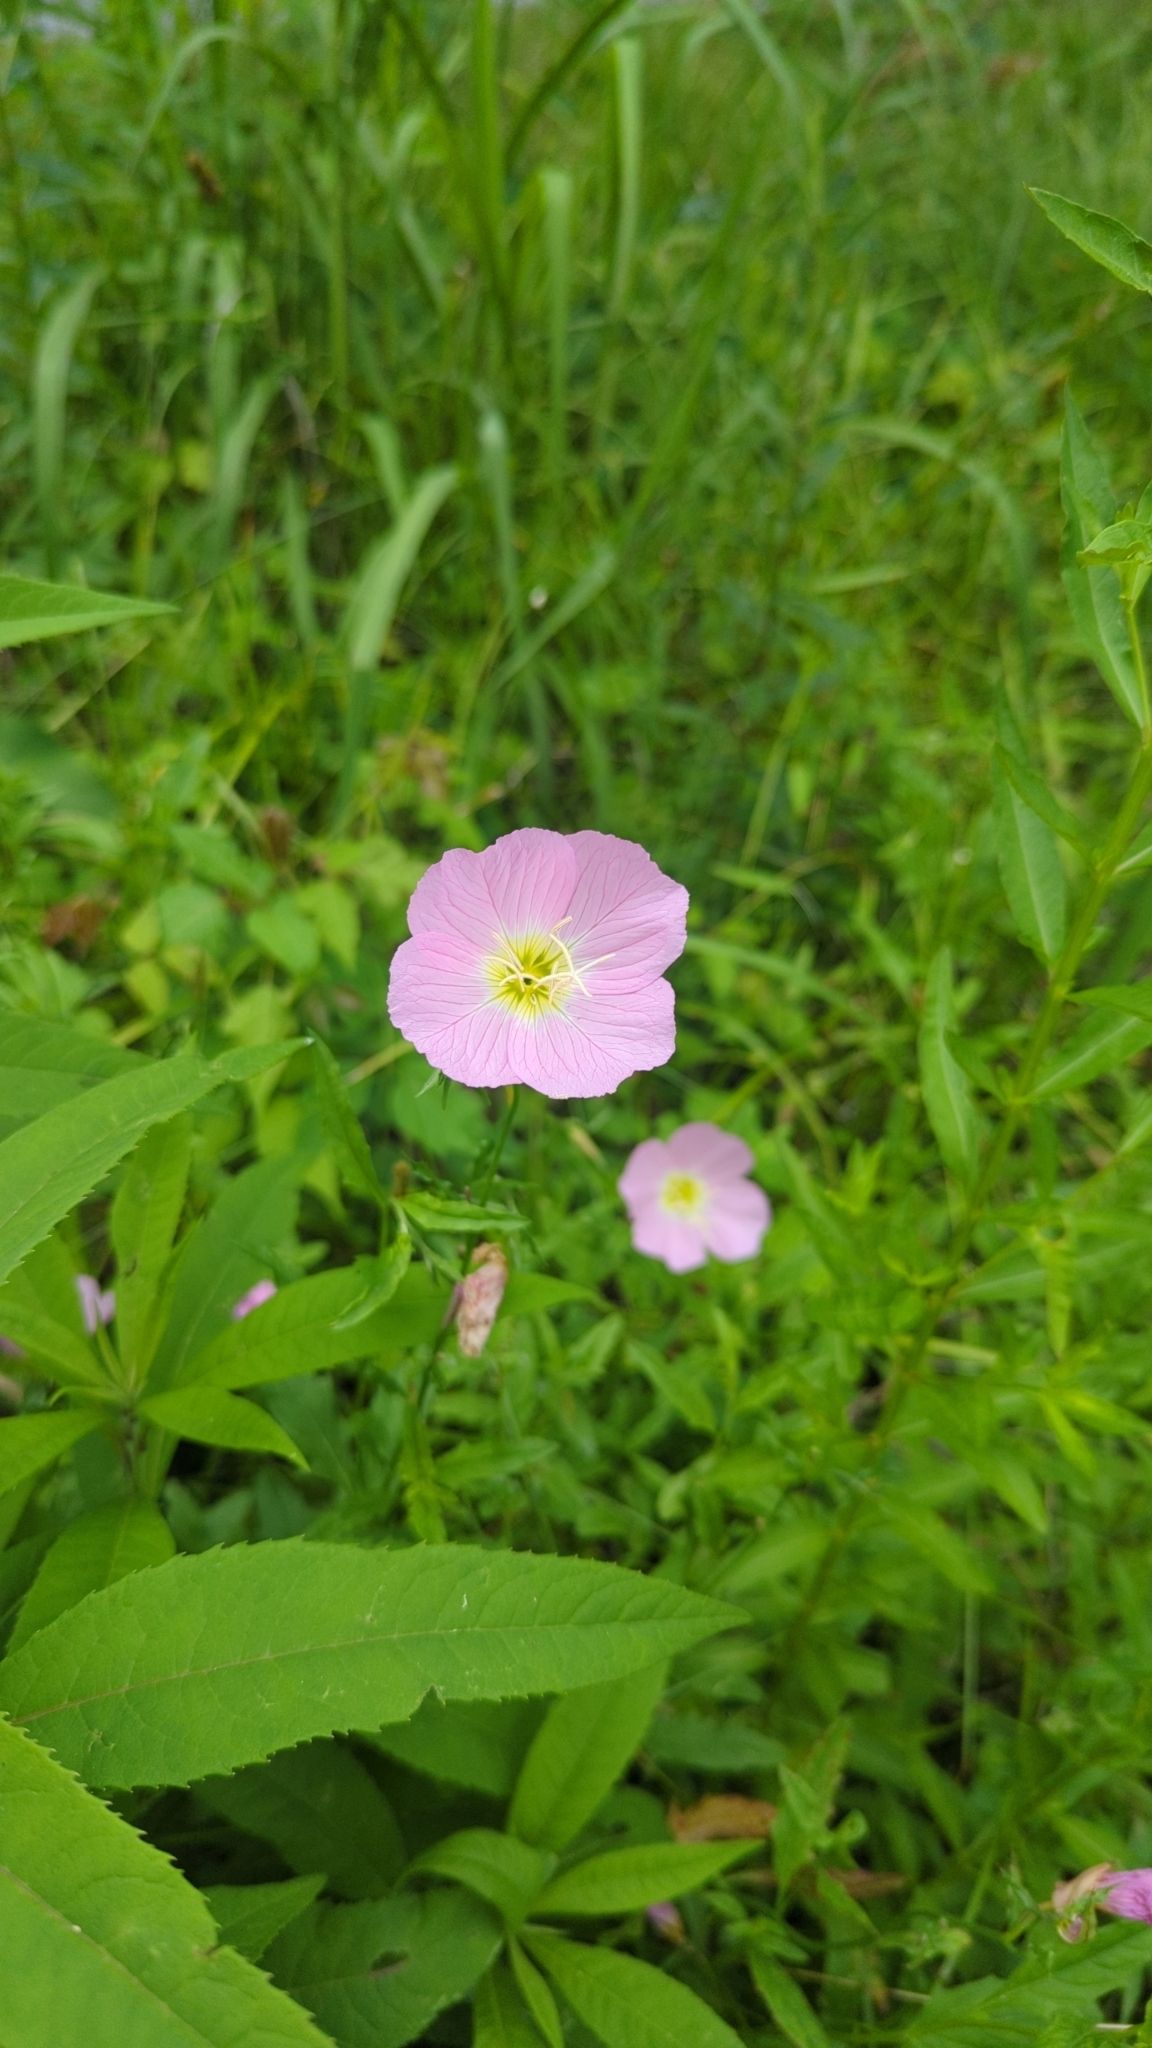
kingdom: Plantae
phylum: Tracheophyta
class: Magnoliopsida
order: Myrtales
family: Onagraceae
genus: Oenothera
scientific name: Oenothera speciosa
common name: White evening-primrose
